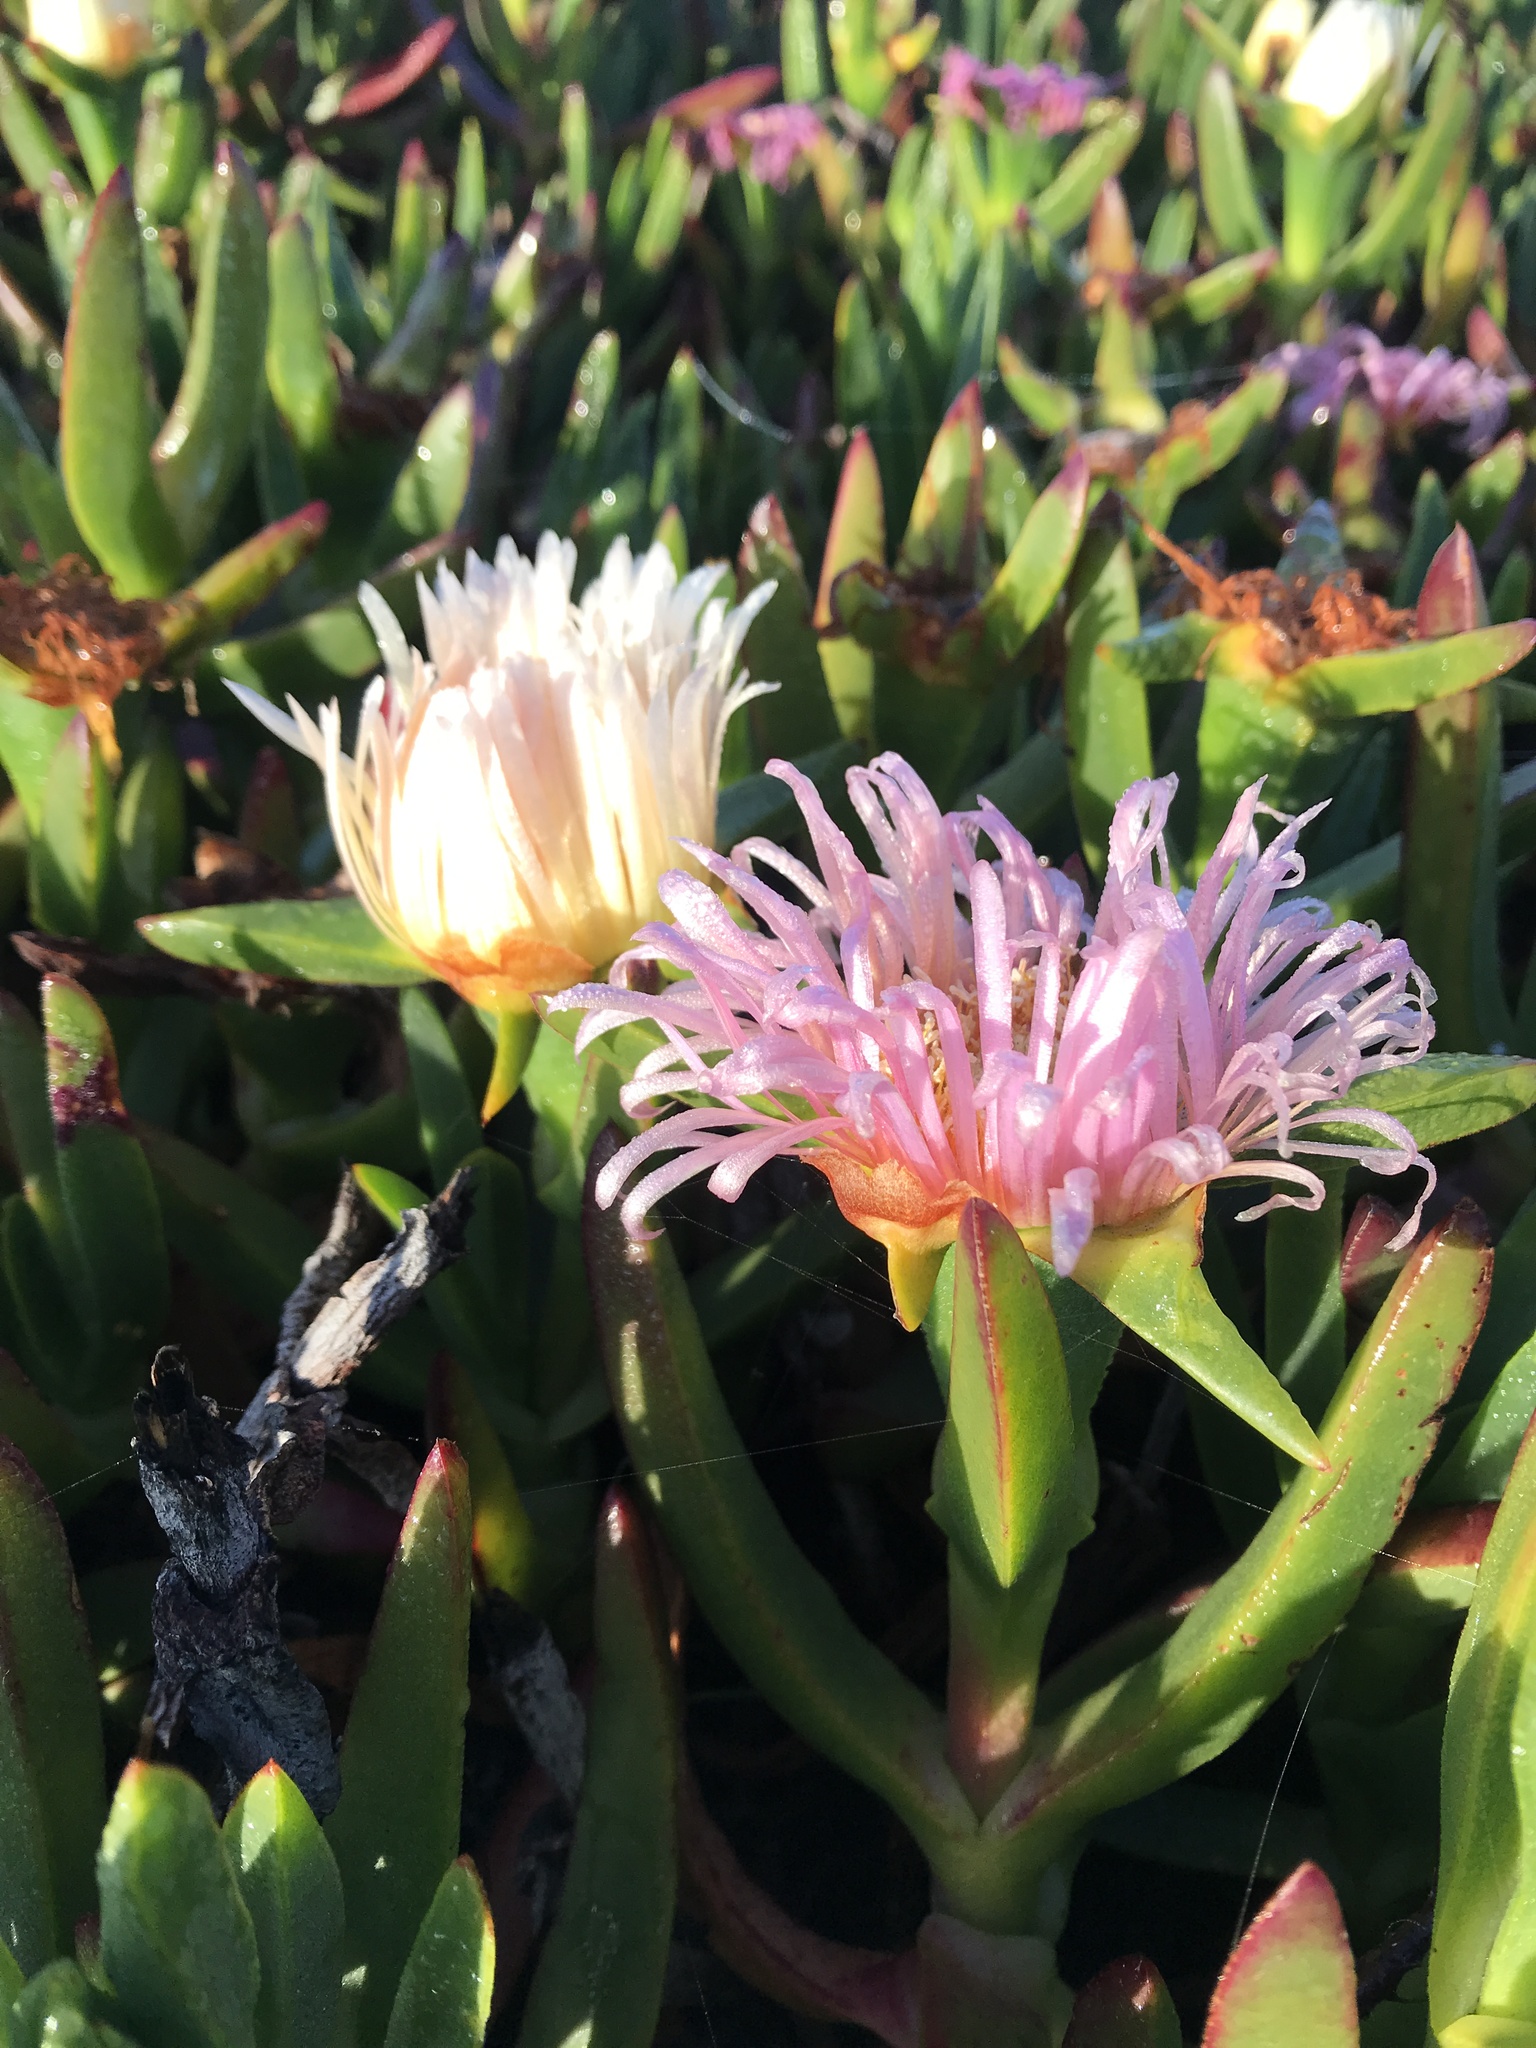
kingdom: Plantae
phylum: Tracheophyta
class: Magnoliopsida
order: Caryophyllales
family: Aizoaceae
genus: Carpobrotus
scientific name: Carpobrotus edulis
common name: Hottentot-fig
